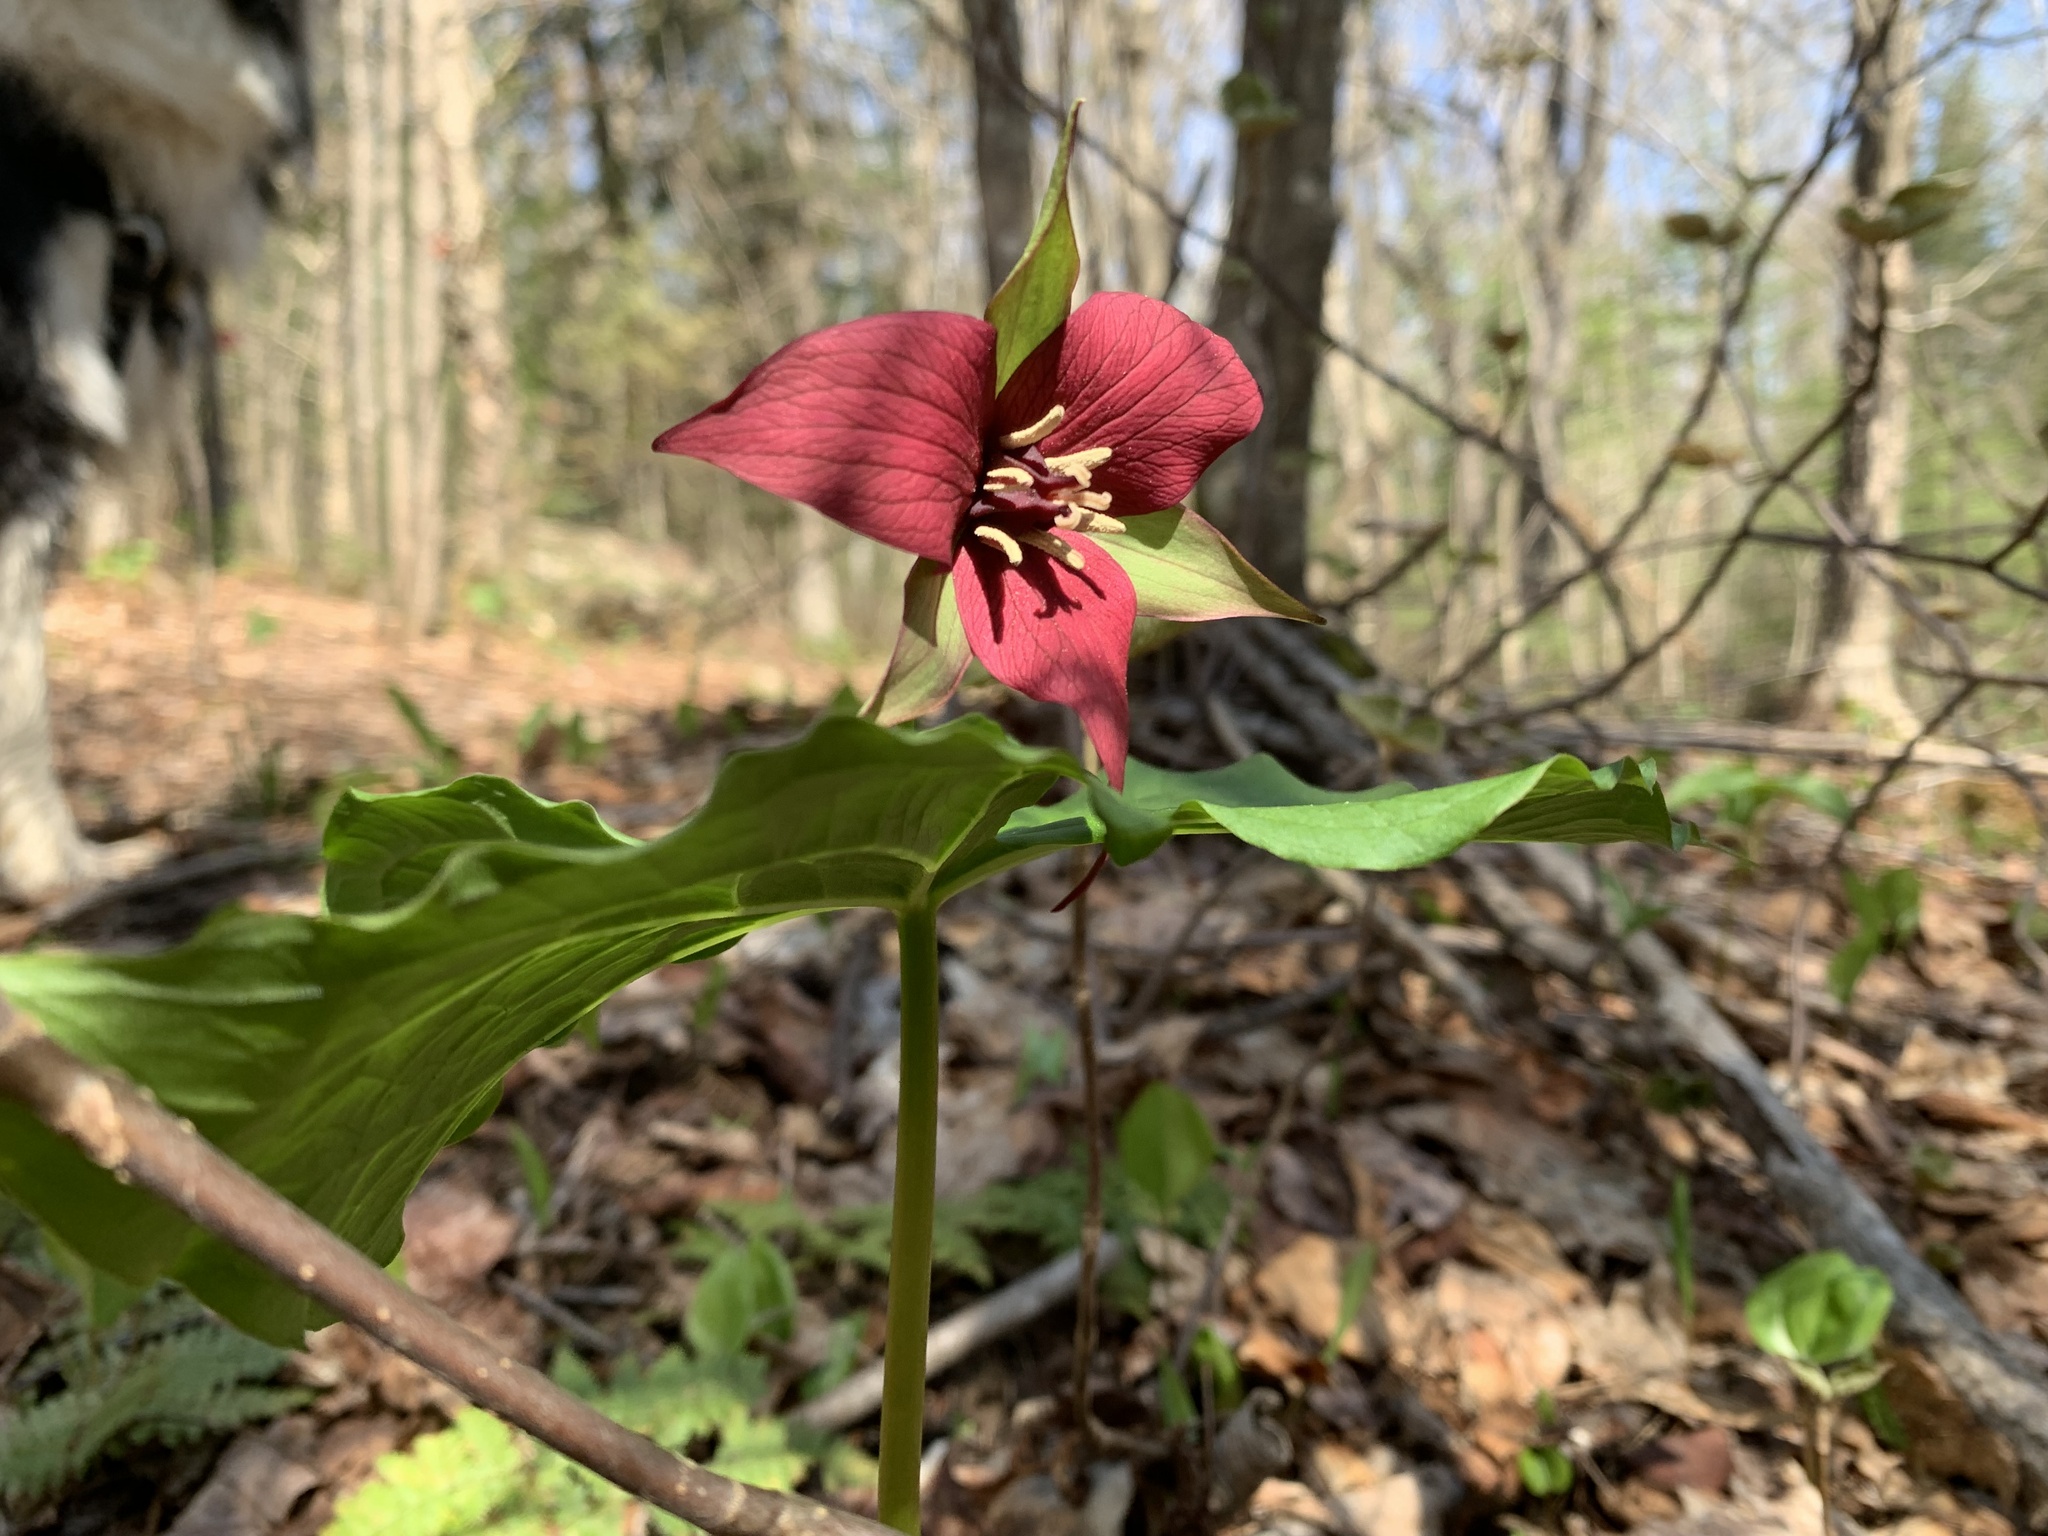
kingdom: Plantae
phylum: Tracheophyta
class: Liliopsida
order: Liliales
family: Melanthiaceae
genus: Trillium
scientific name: Trillium erectum
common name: Purple trillium
